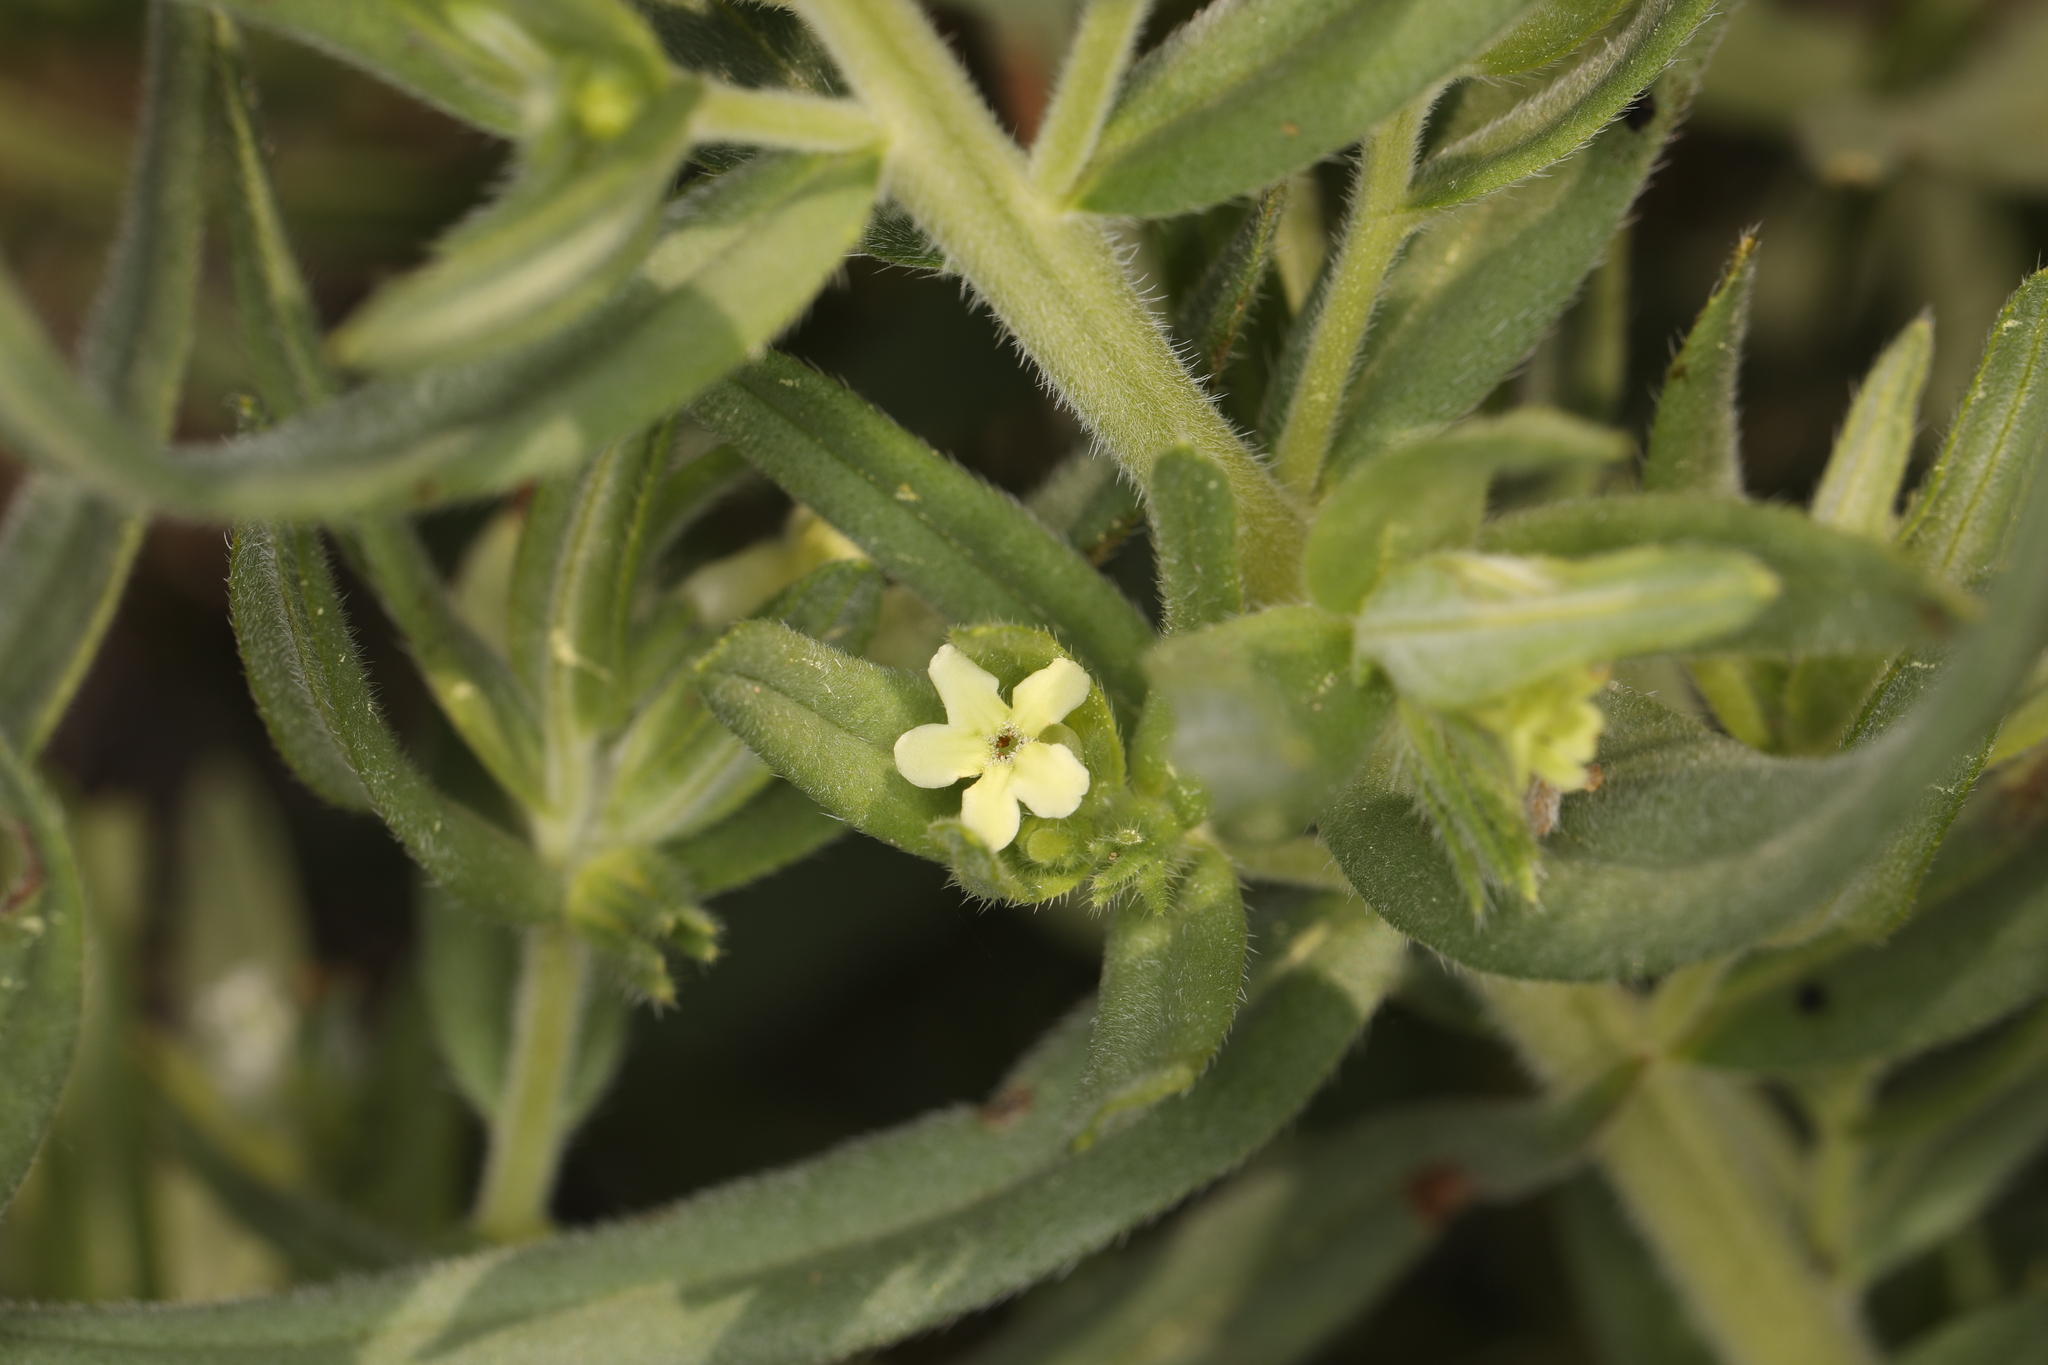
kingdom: Plantae
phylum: Tracheophyta
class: Magnoliopsida
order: Boraginales
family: Boraginaceae
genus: Lithospermum
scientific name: Lithospermum ruderale
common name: Western gromwell
